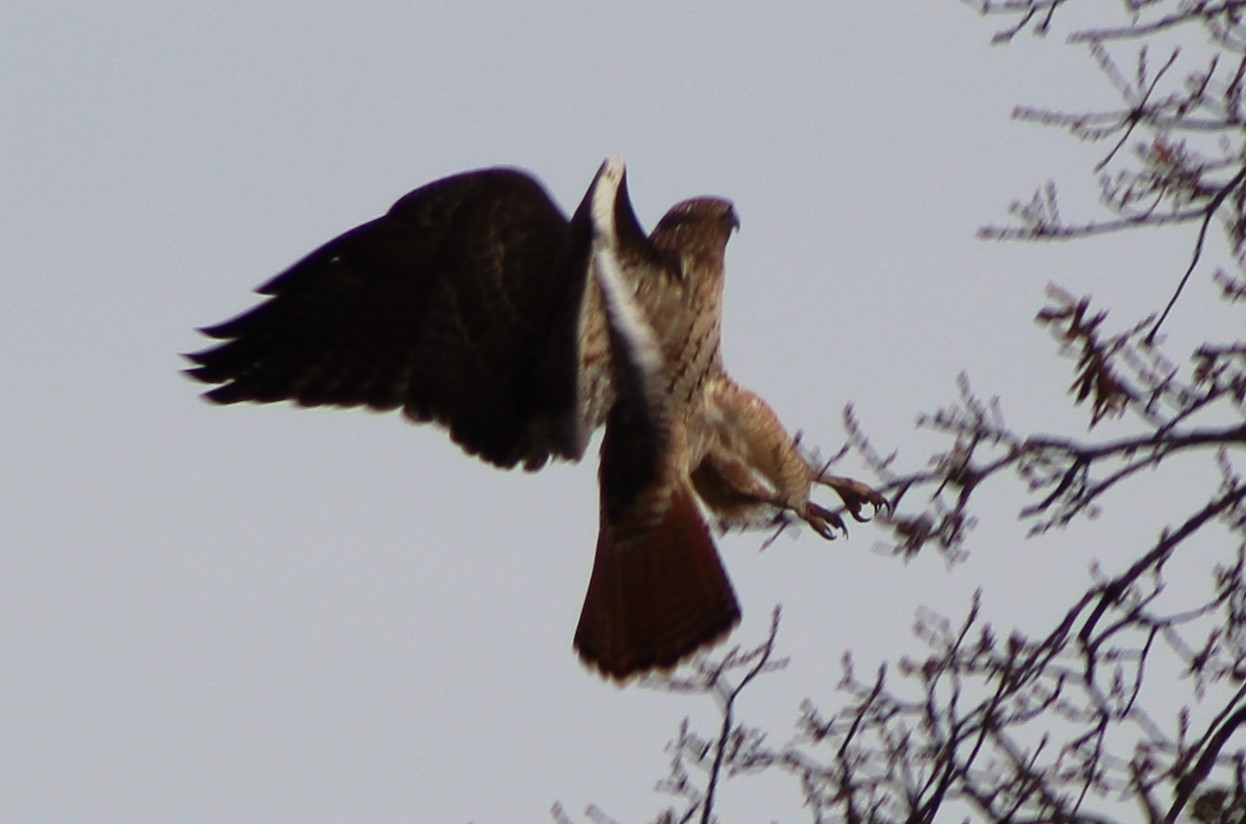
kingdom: Animalia
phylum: Chordata
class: Aves
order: Accipitriformes
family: Accipitridae
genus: Buteo
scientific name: Buteo jamaicensis
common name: Red-tailed hawk
